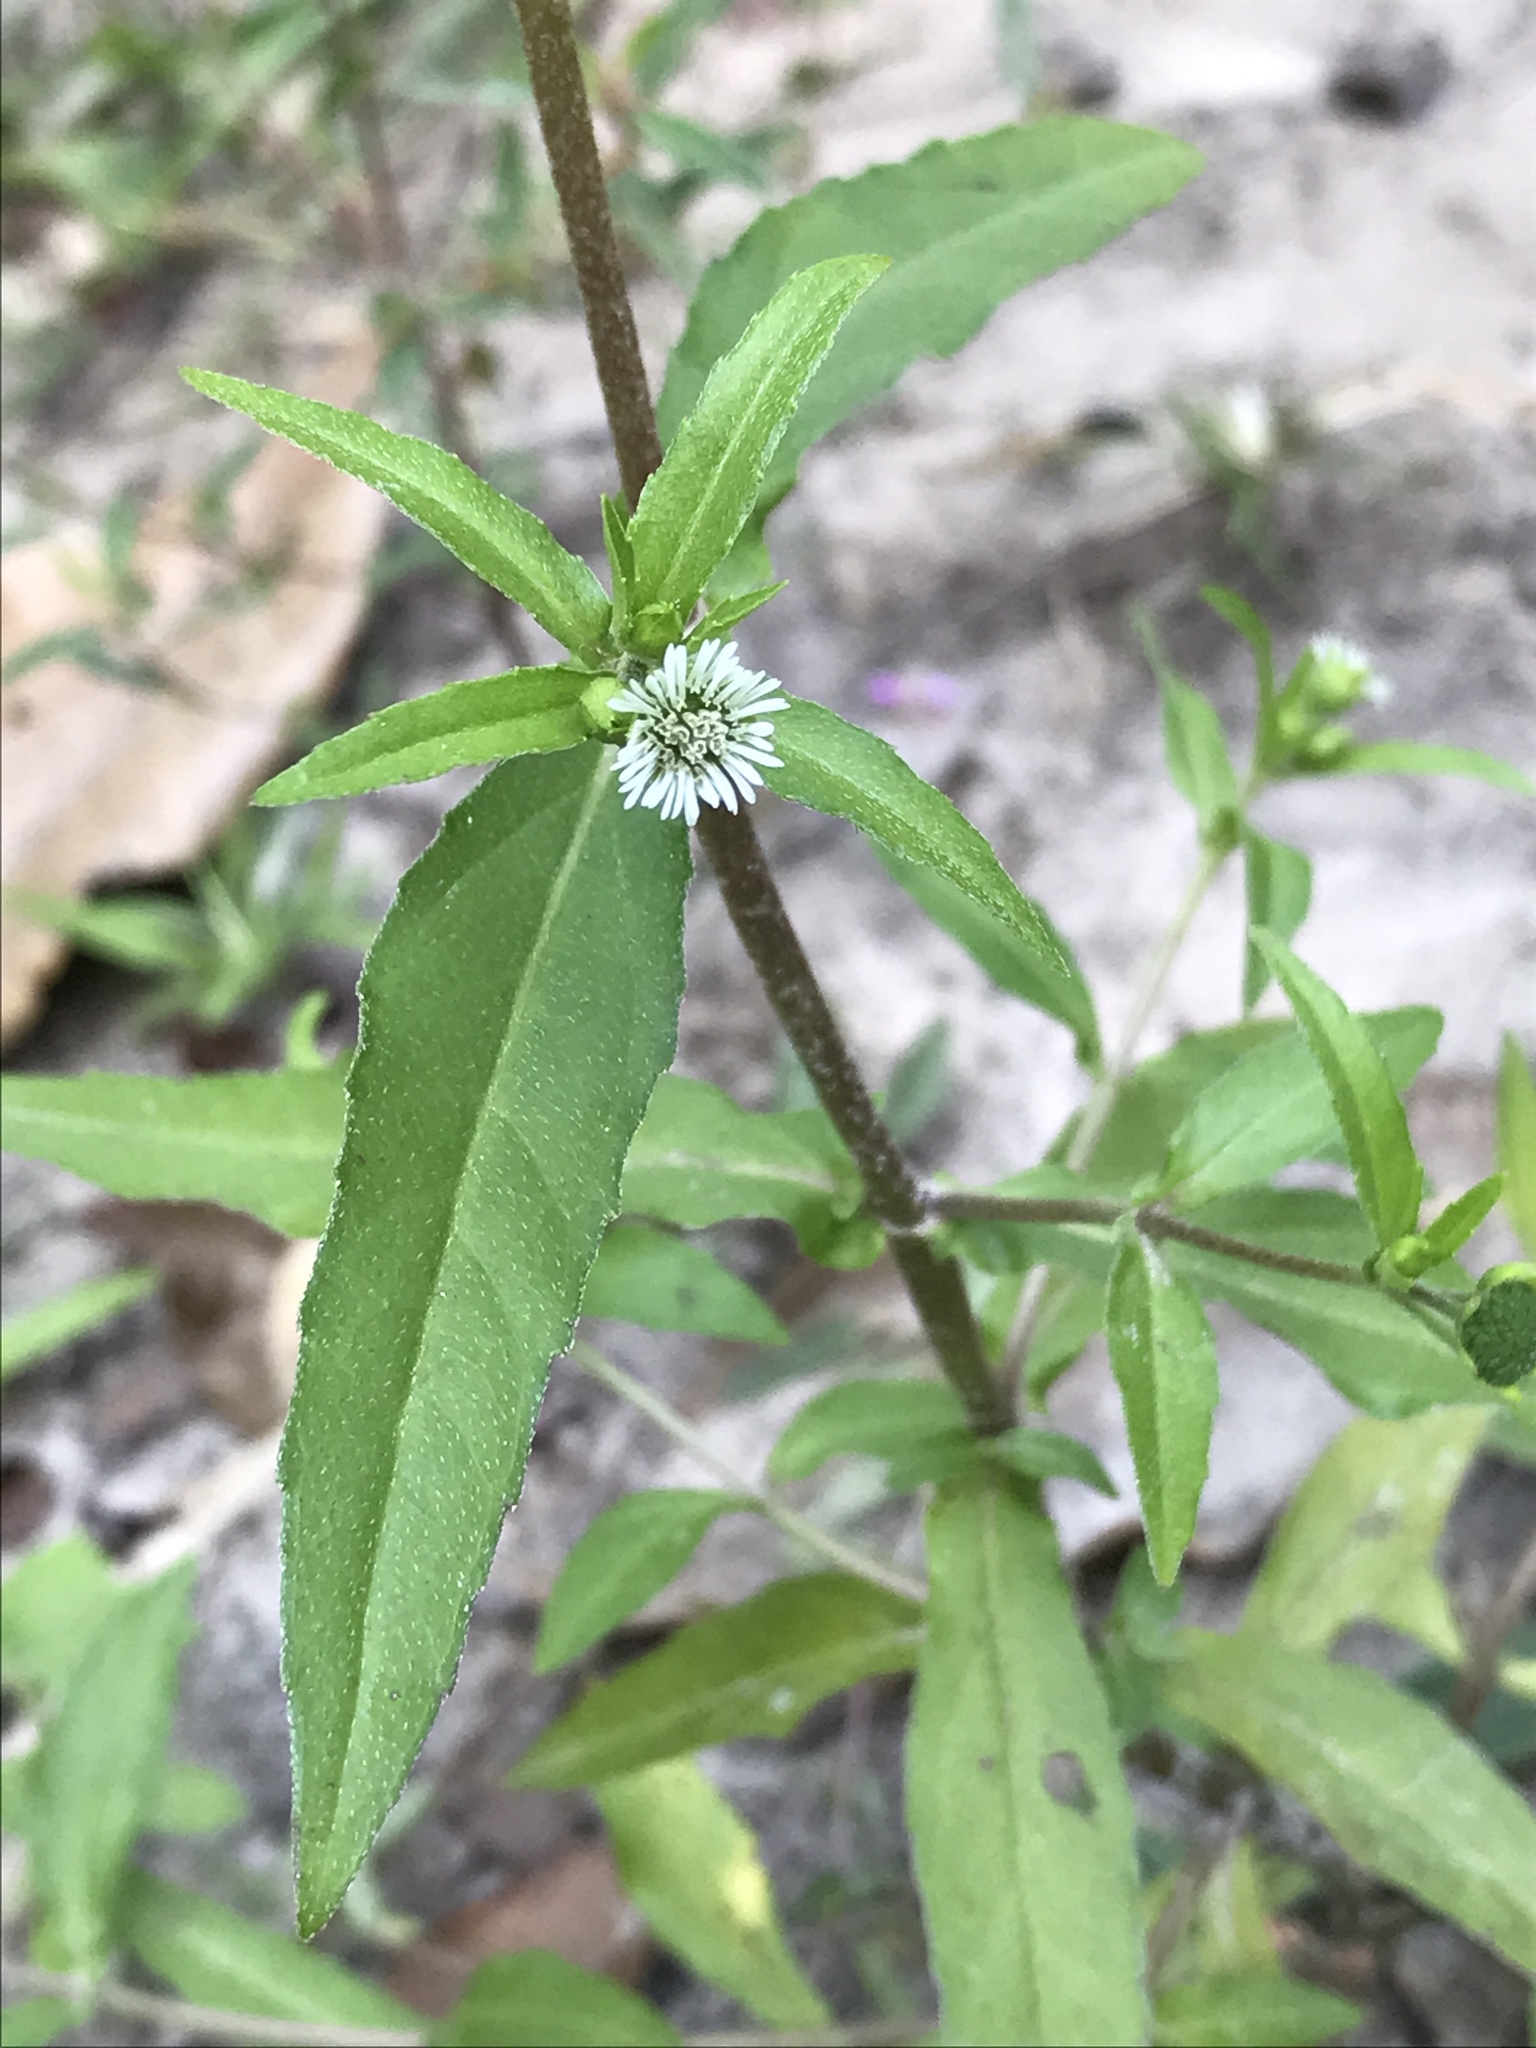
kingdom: Plantae
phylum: Tracheophyta
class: Magnoliopsida
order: Asterales
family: Asteraceae
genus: Eclipta
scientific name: Eclipta prostrata
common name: False daisy
